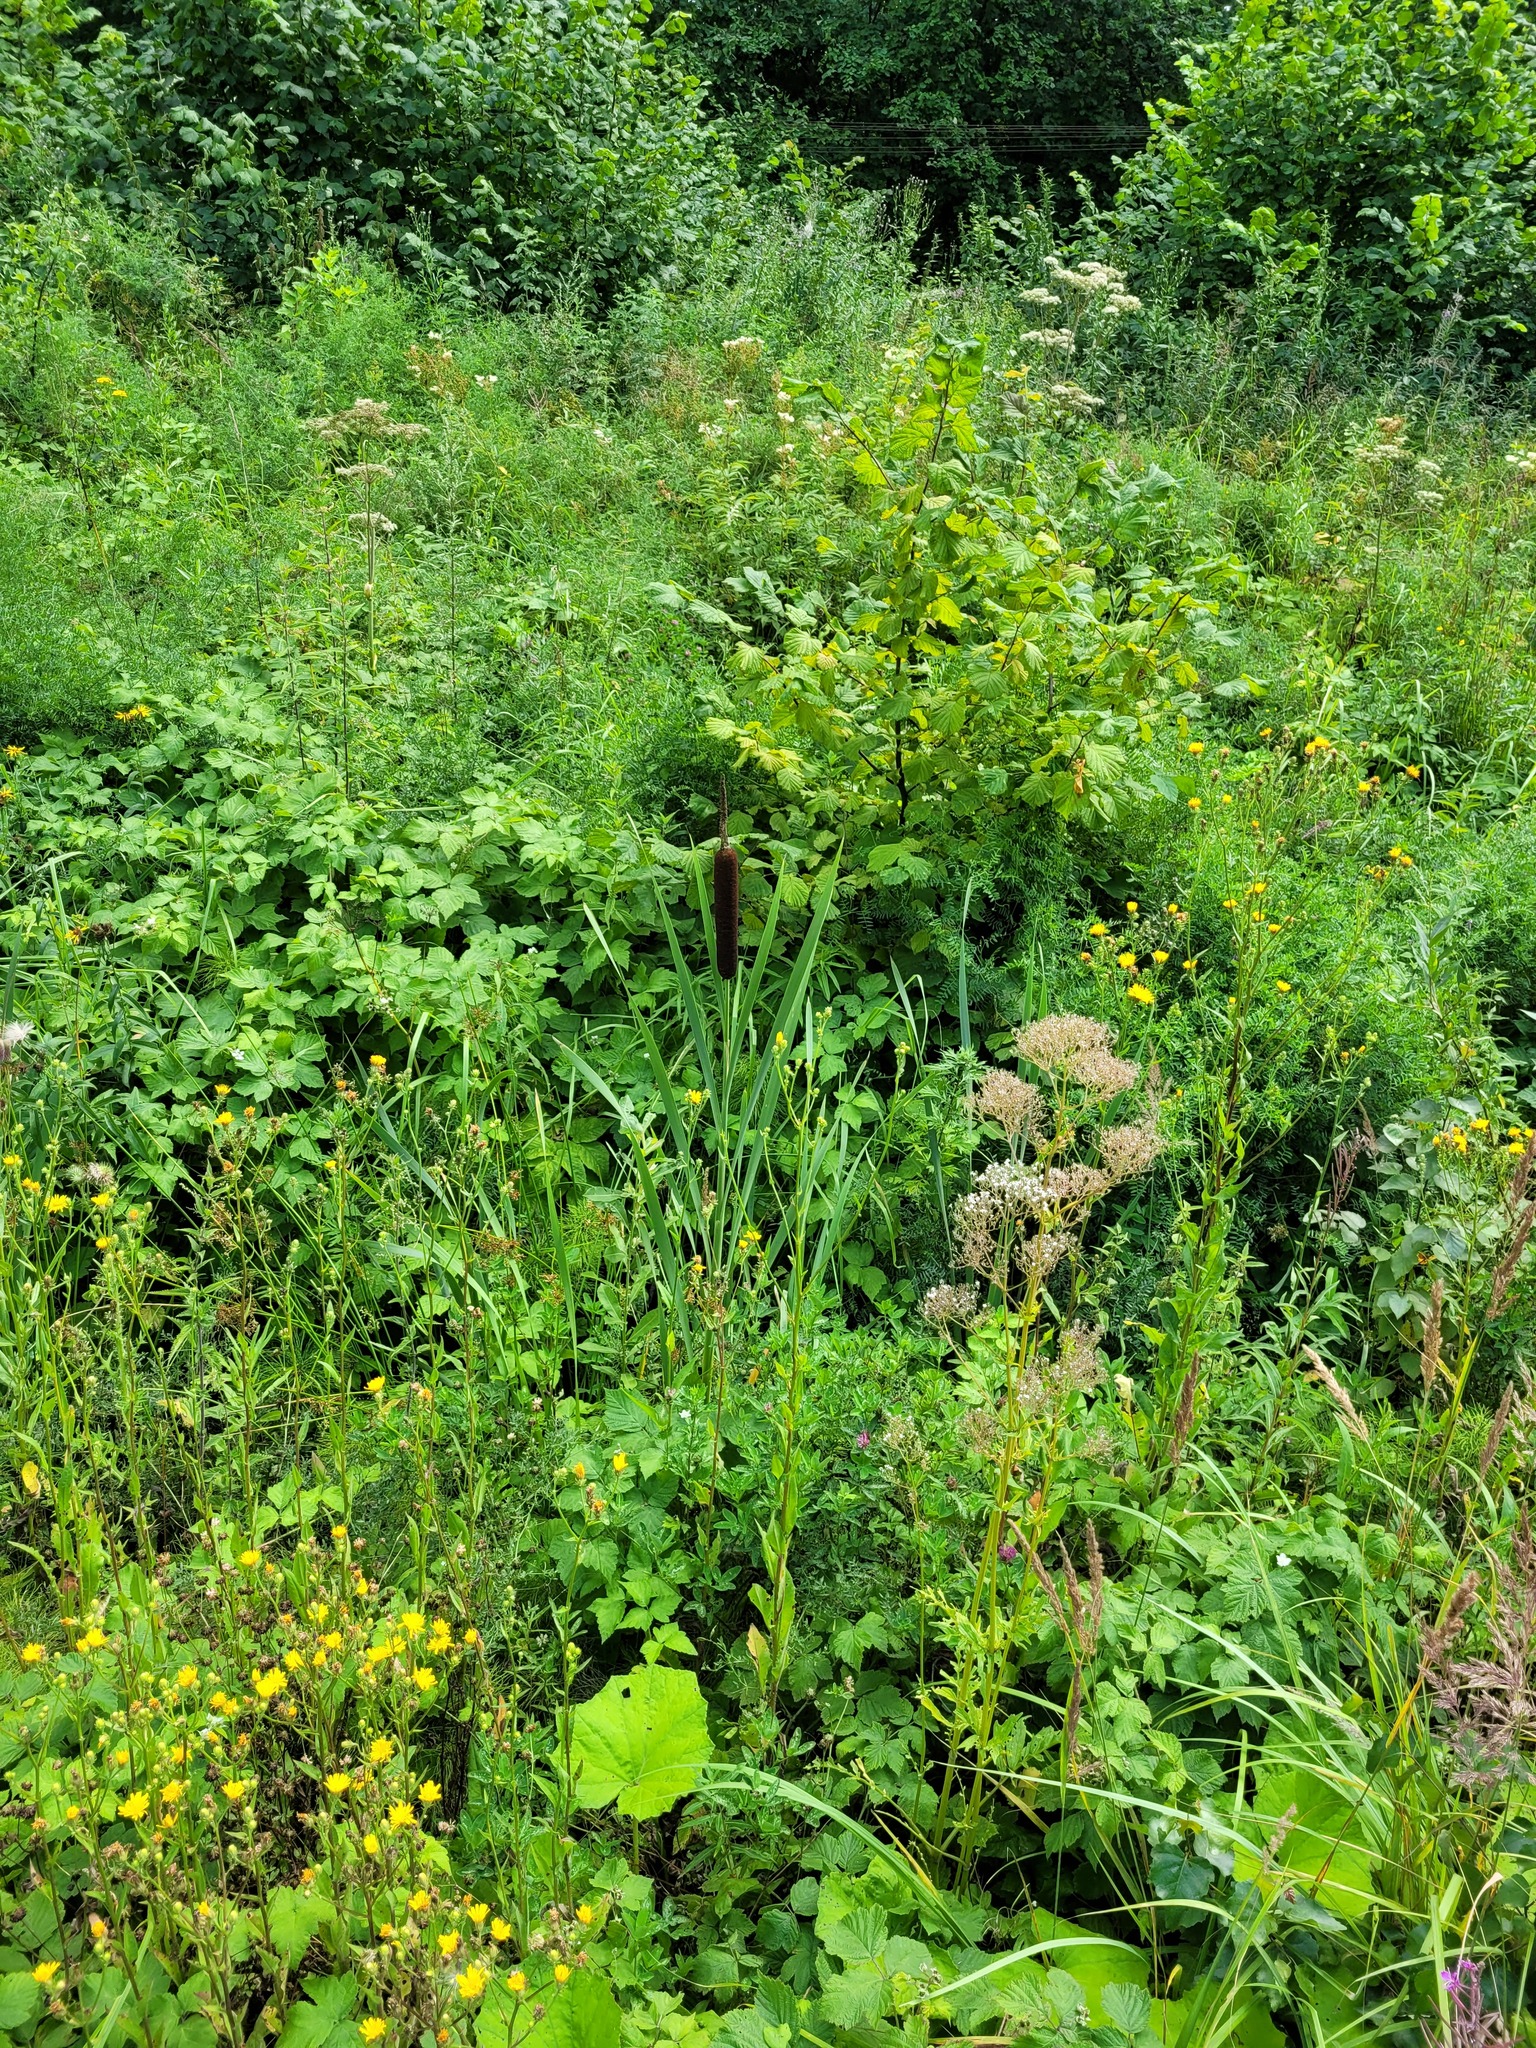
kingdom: Plantae
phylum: Tracheophyta
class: Liliopsida
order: Poales
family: Typhaceae
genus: Typha
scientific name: Typha latifolia
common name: Broadleaf cattail
